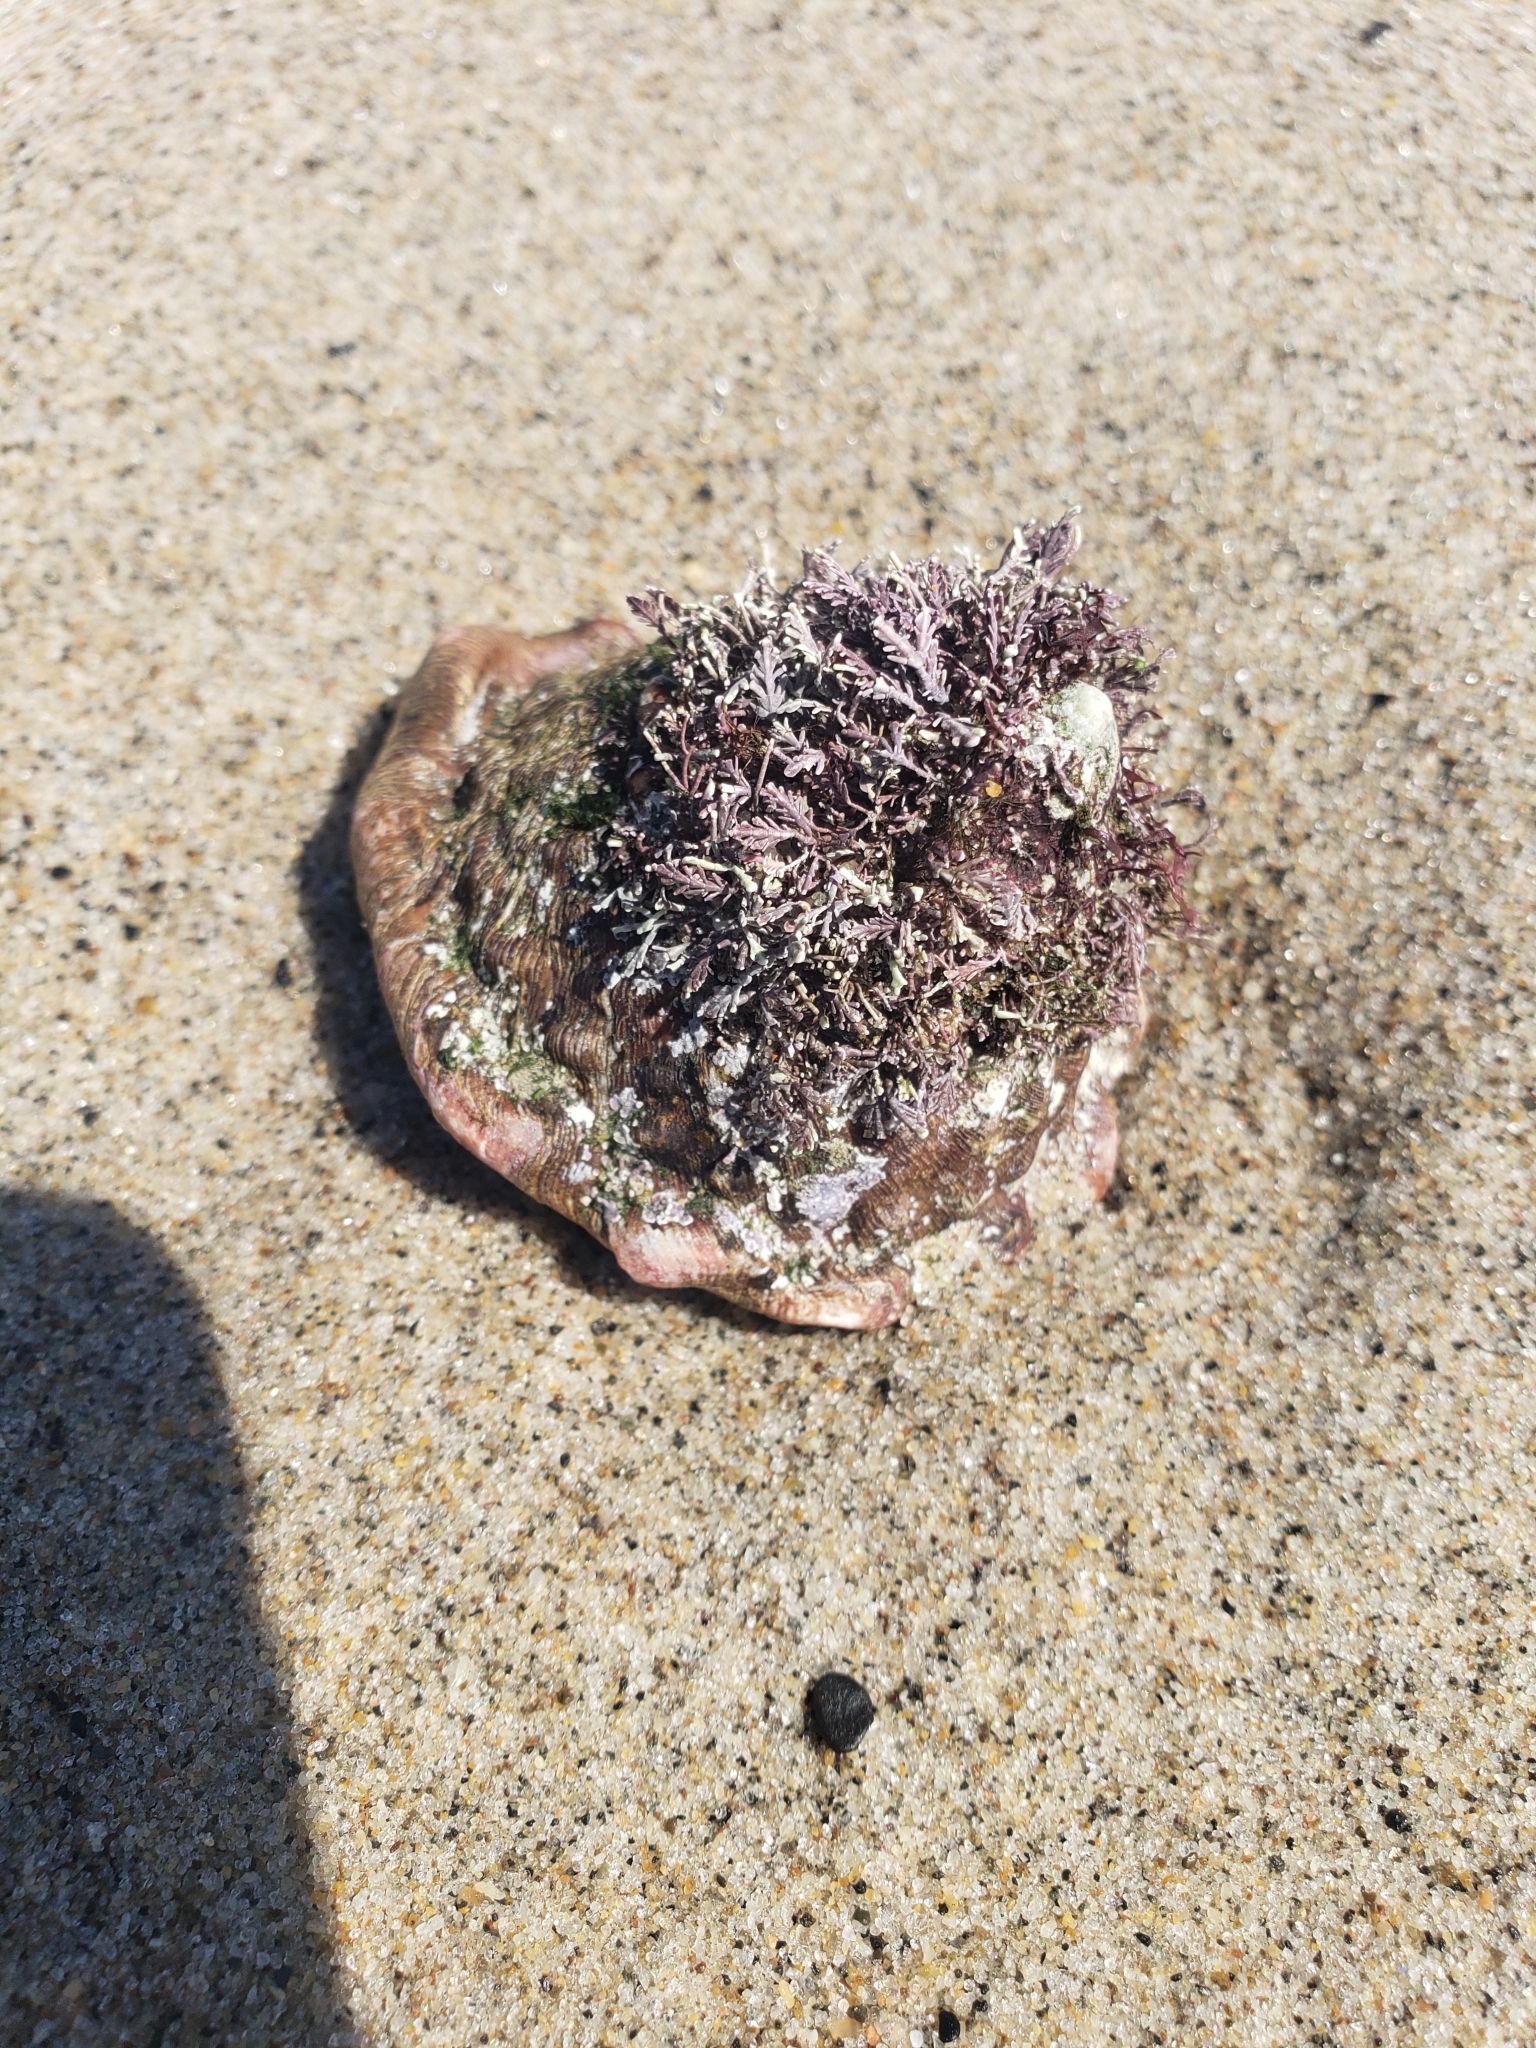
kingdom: Animalia
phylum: Mollusca
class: Gastropoda
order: Trochida
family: Turbinidae
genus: Megastraea
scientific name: Megastraea undosa
